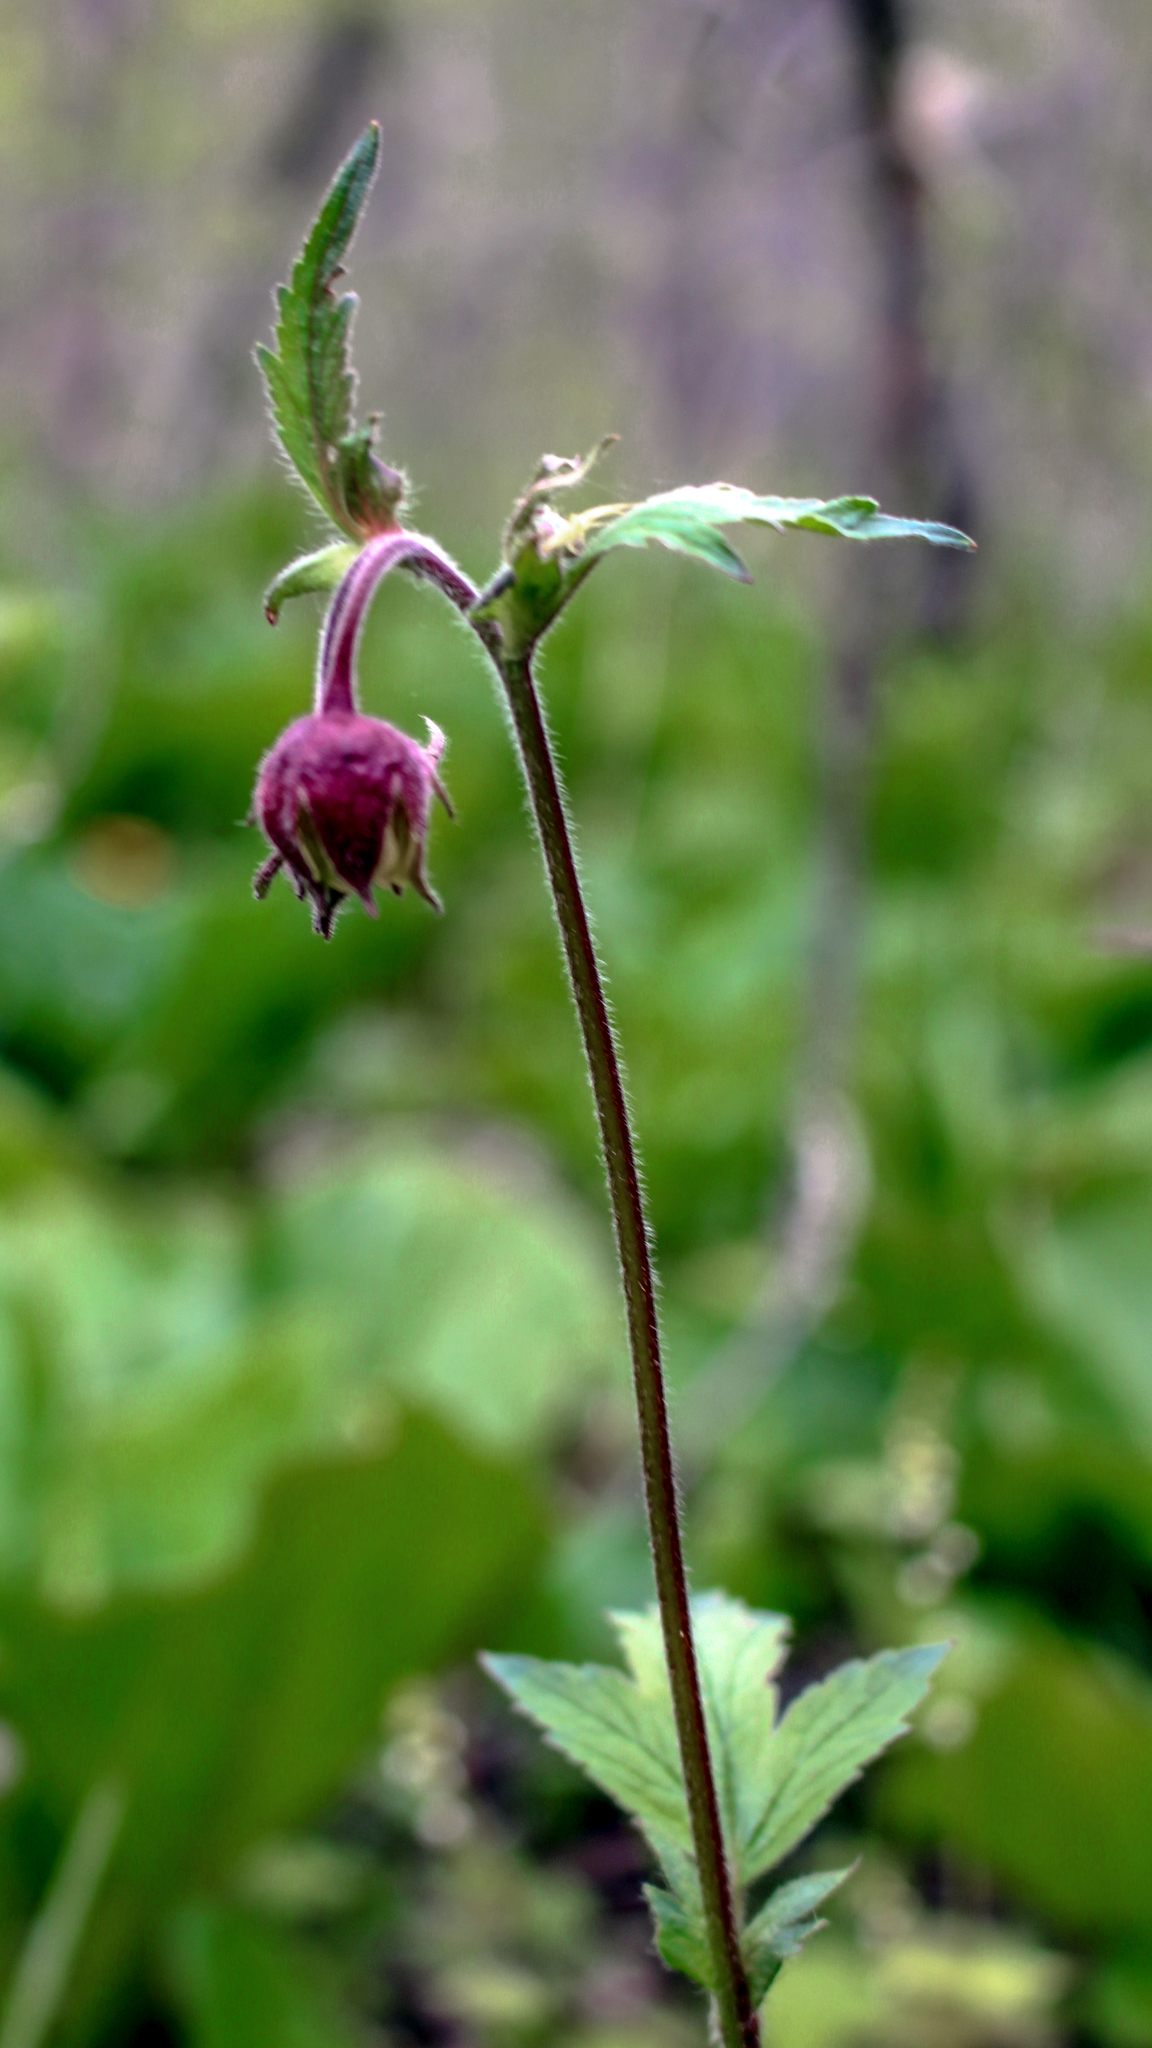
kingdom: Plantae
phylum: Tracheophyta
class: Magnoliopsida
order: Rosales
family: Rosaceae
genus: Geum
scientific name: Geum rivale
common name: Water avens
